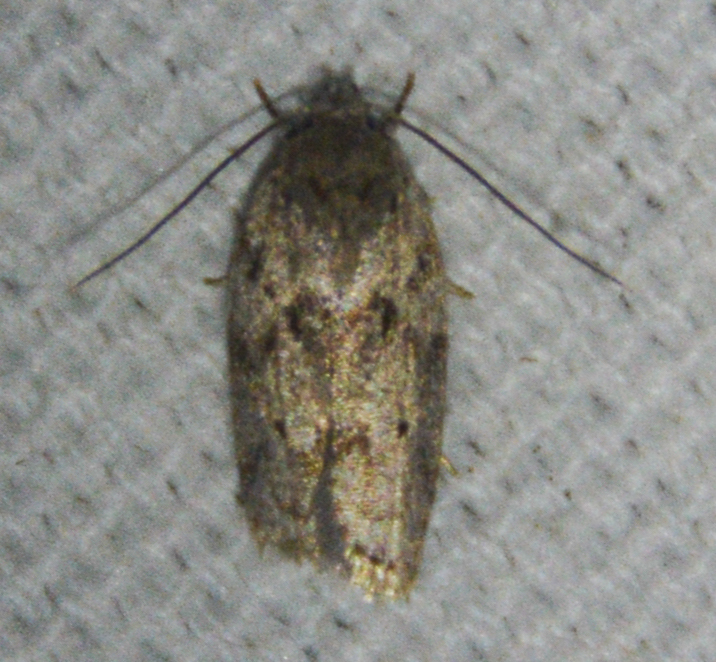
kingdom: Animalia
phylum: Arthropoda
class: Insecta
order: Lepidoptera
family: Depressariidae
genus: Antaeotricha
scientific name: Antaeotricha humilis
